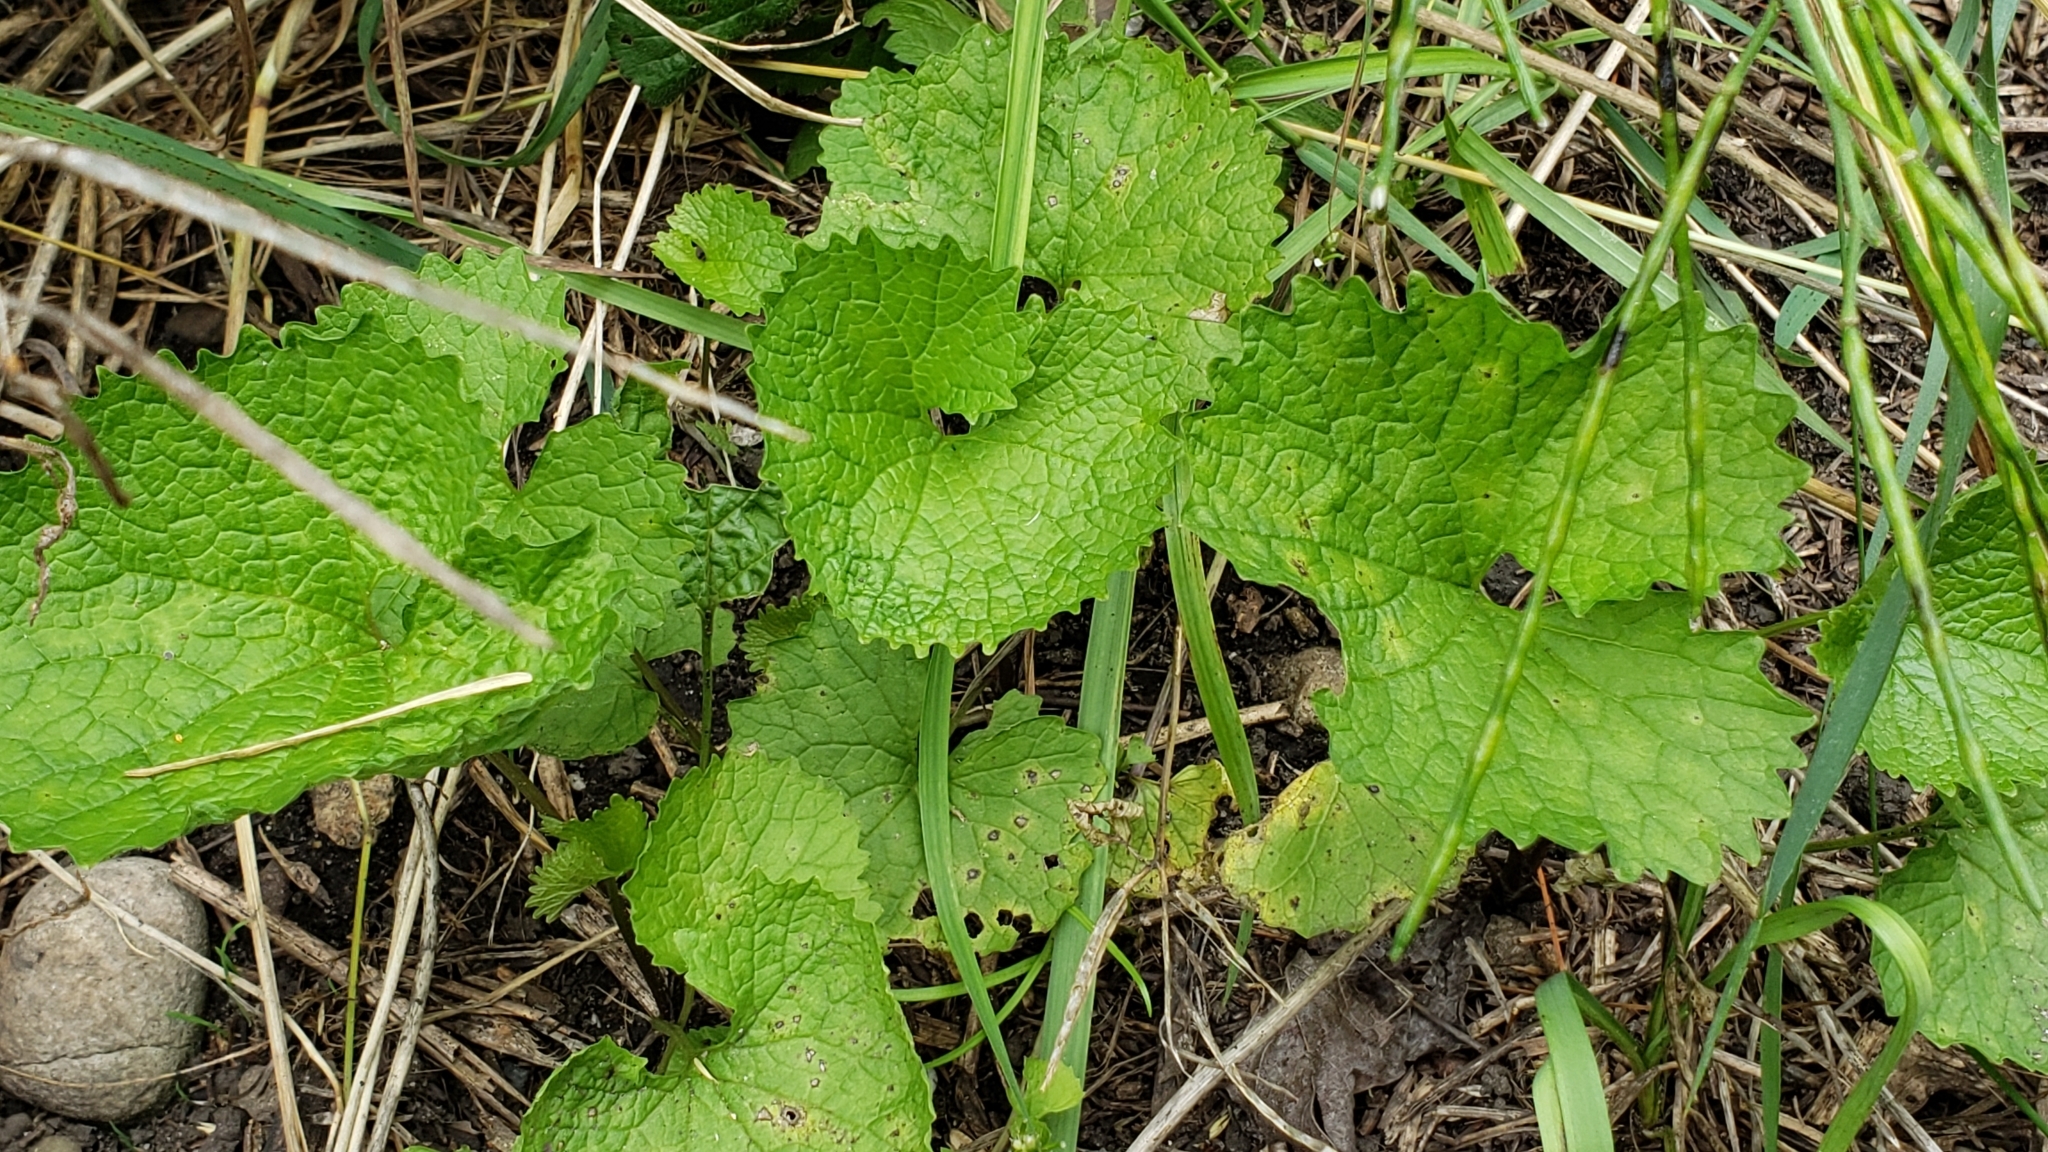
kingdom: Plantae
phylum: Tracheophyta
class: Magnoliopsida
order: Brassicales
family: Brassicaceae
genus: Alliaria
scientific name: Alliaria petiolata
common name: Garlic mustard
